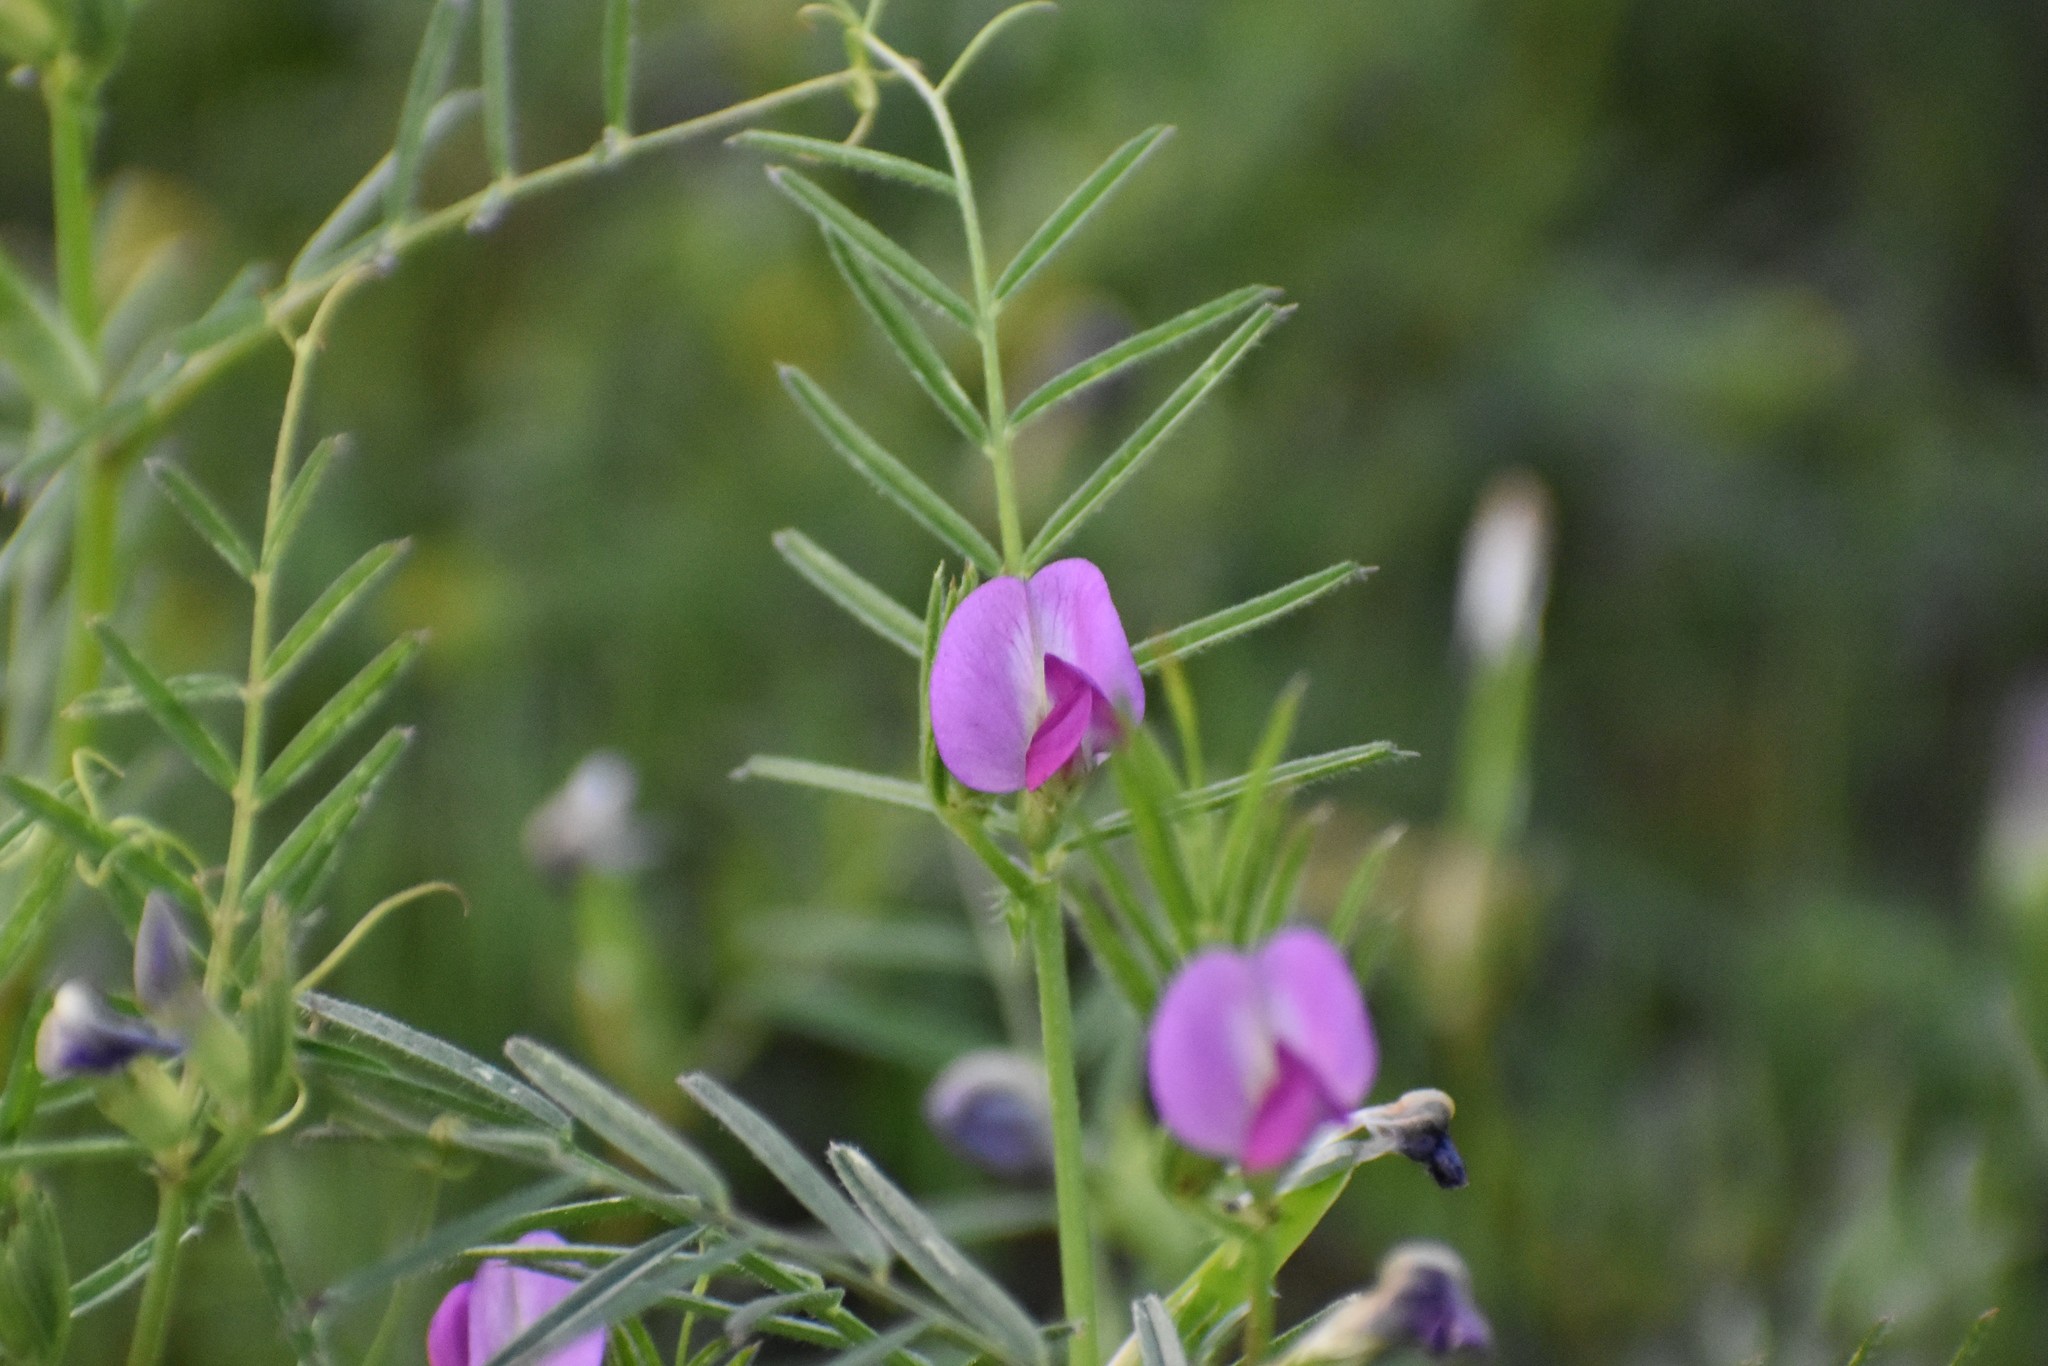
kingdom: Plantae
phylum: Tracheophyta
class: Magnoliopsida
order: Fabales
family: Fabaceae
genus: Vicia
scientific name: Vicia sativa
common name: Garden vetch
